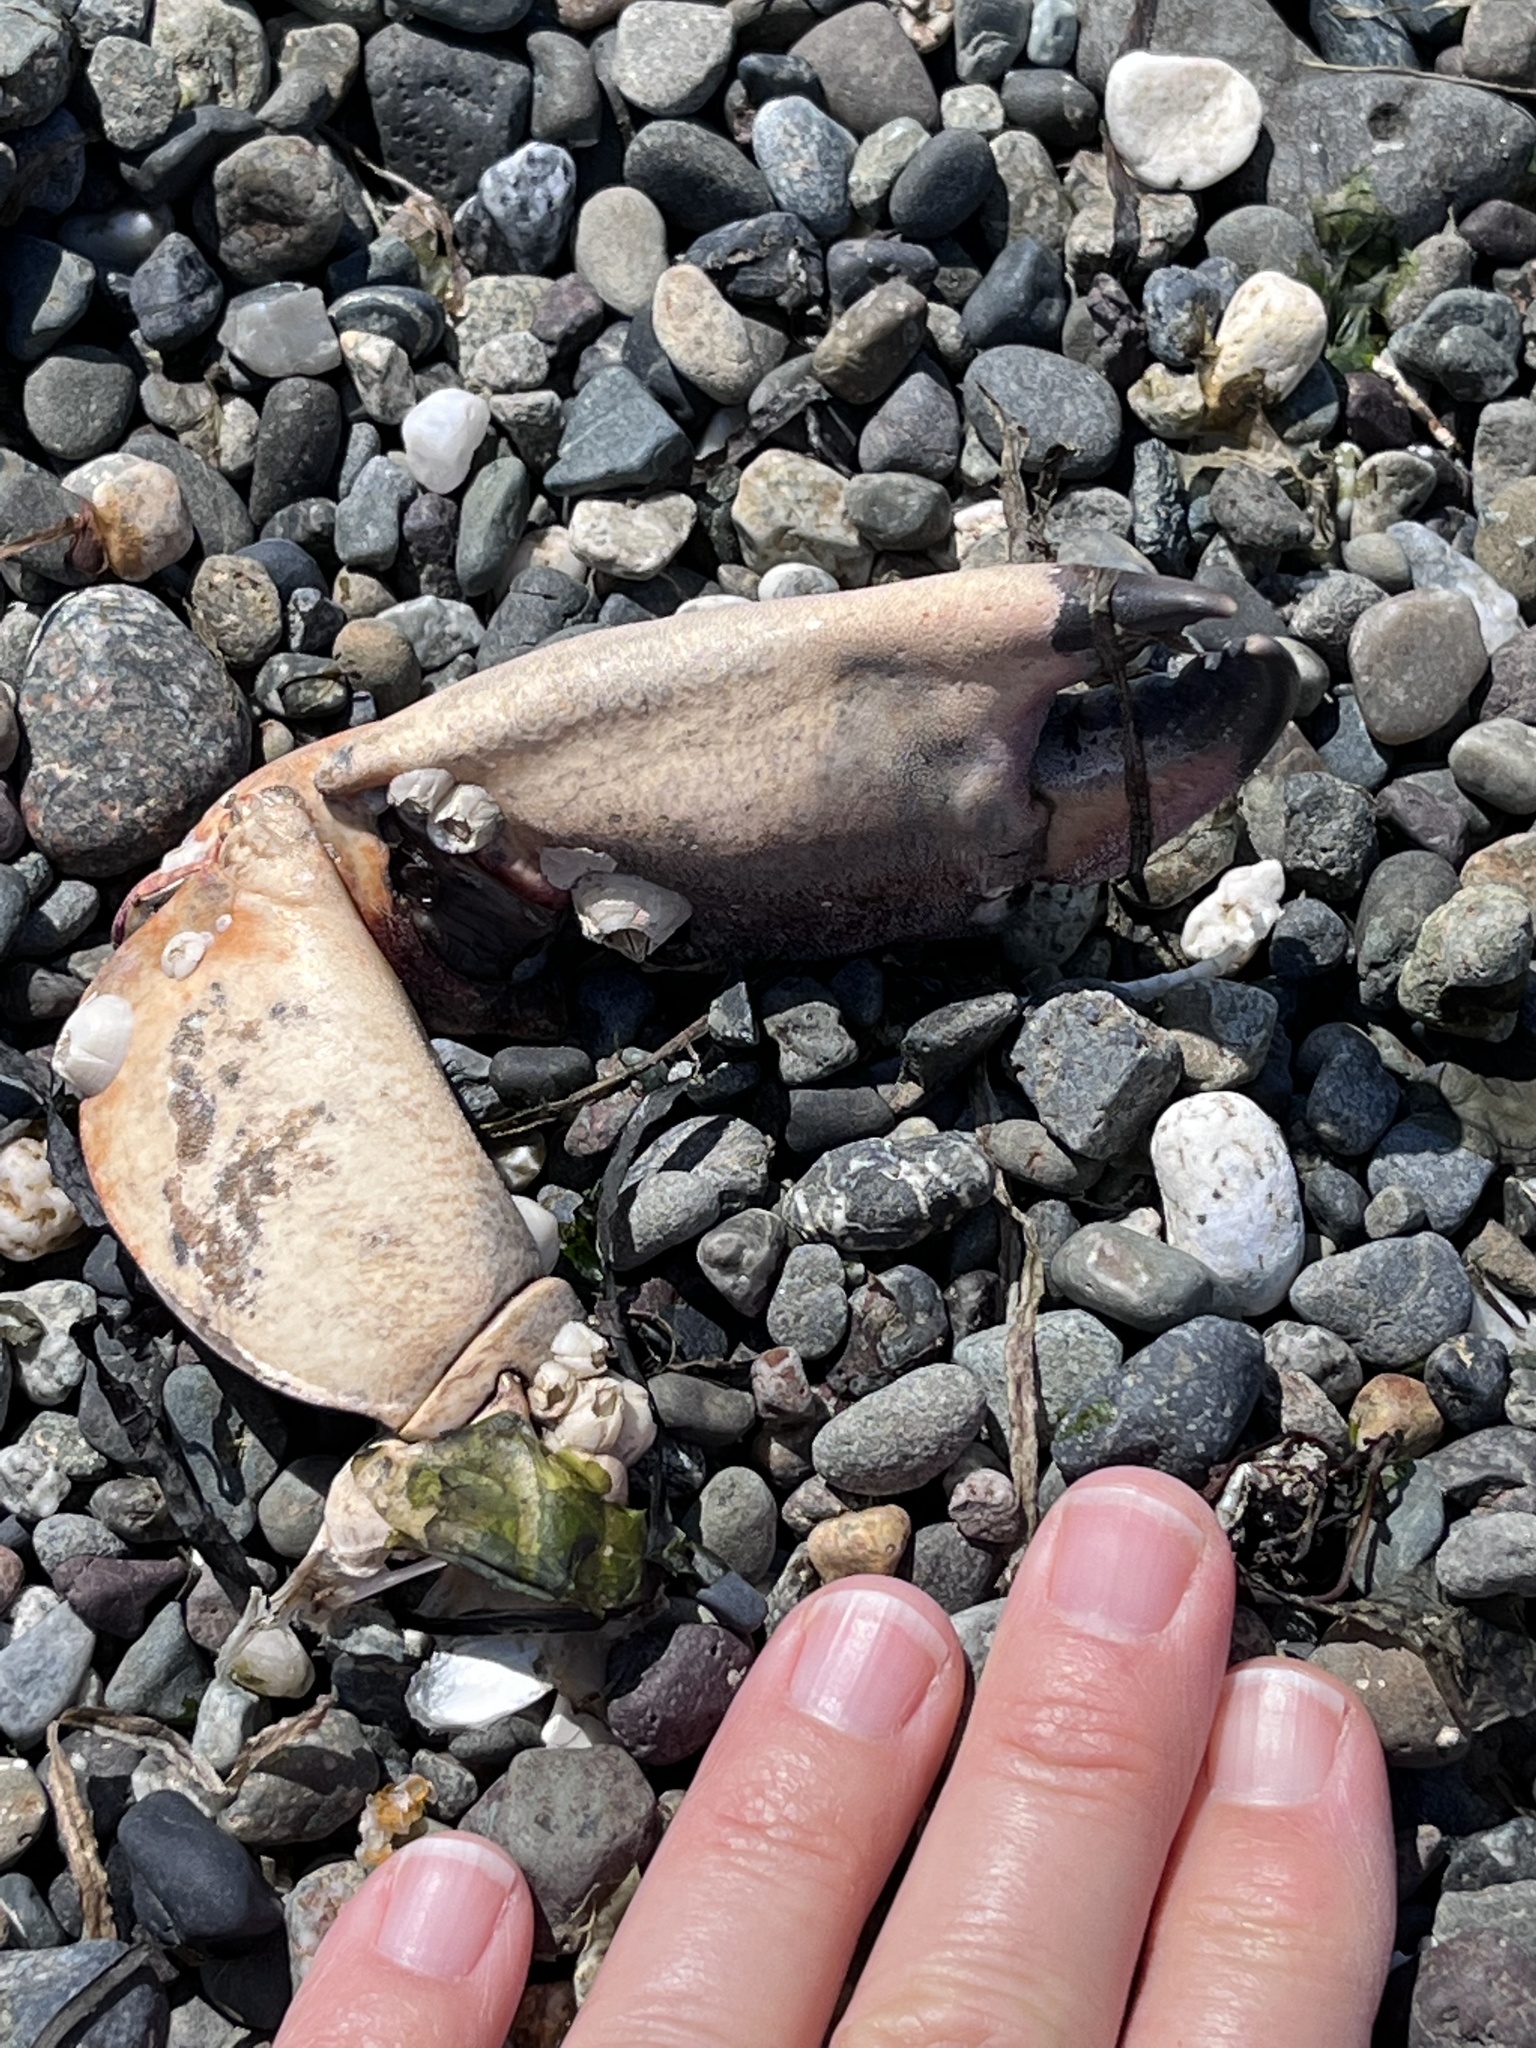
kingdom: Animalia
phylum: Arthropoda
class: Malacostraca
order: Decapoda
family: Cancridae
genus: Cancer
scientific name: Cancer productus
